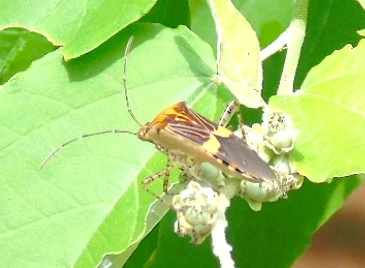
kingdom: Animalia
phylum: Arthropoda
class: Insecta
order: Hemiptera
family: Coreidae
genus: Hypselonotus
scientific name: Hypselonotus
